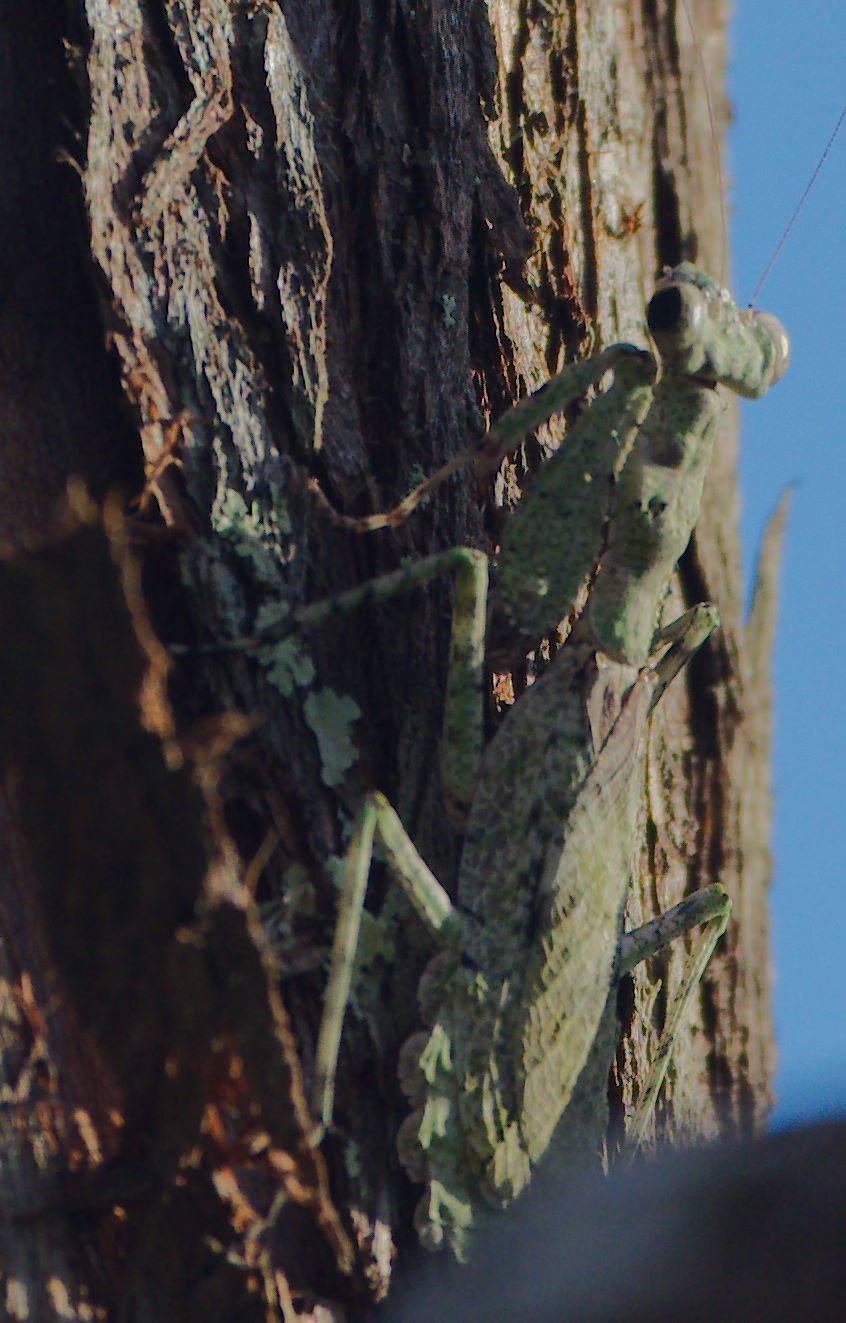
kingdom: Animalia
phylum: Arthropoda
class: Insecta
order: Mantodea
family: Epaphroditidae
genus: Gonatista
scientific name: Gonatista grisea
